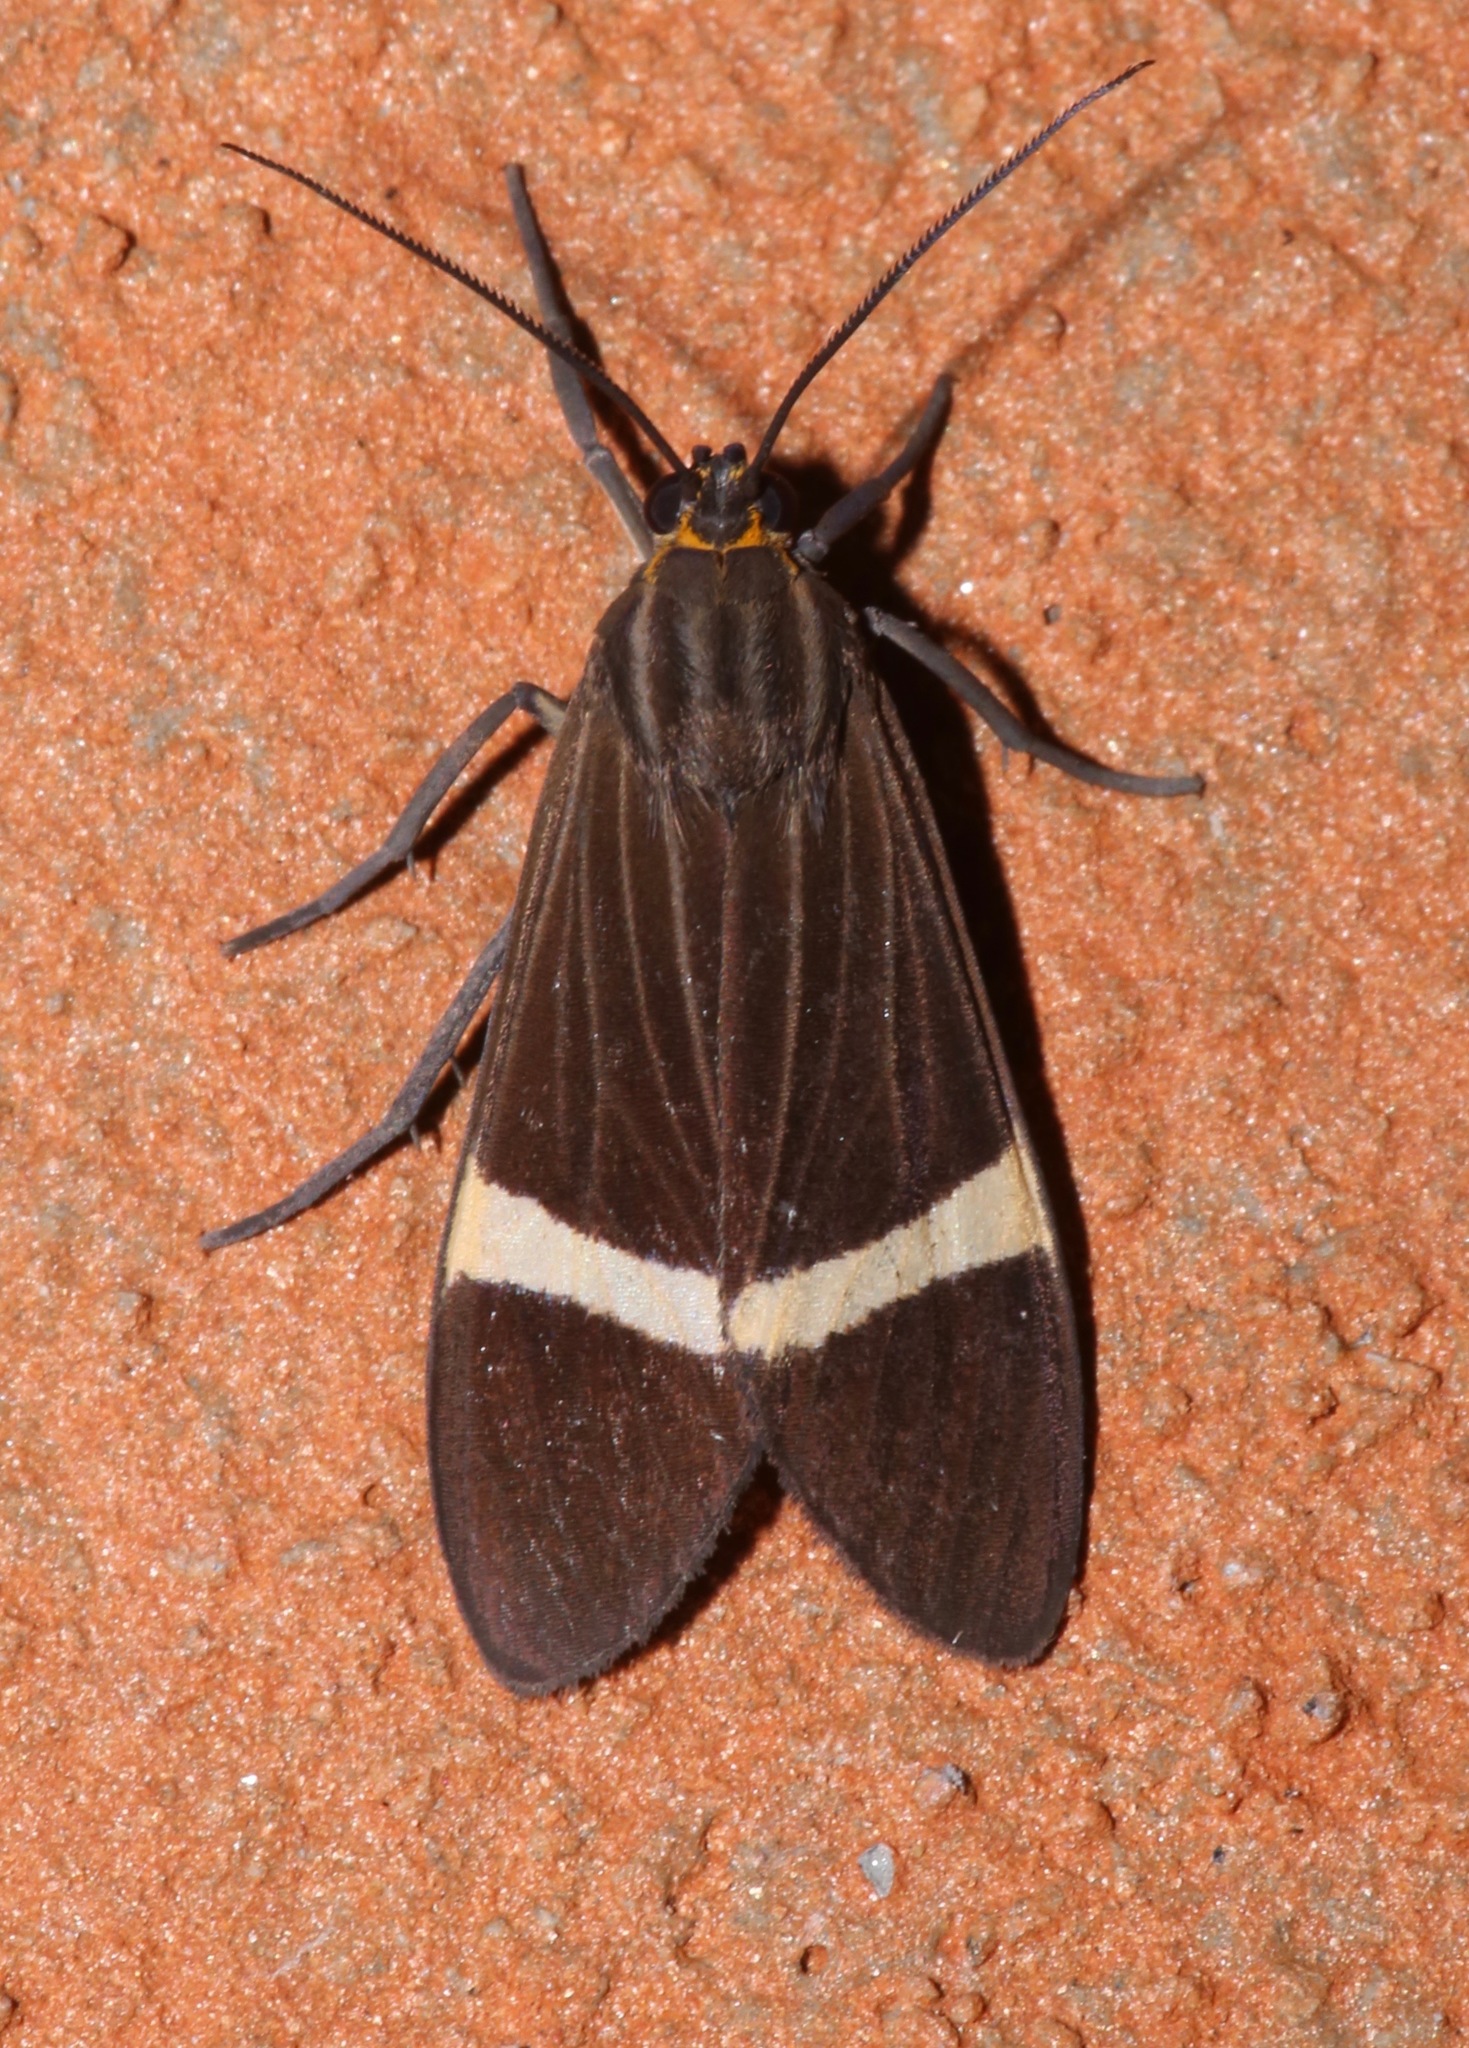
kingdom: Animalia
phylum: Arthropoda
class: Insecta
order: Lepidoptera
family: Erebidae
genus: Aclytia
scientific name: Aclytia heber
